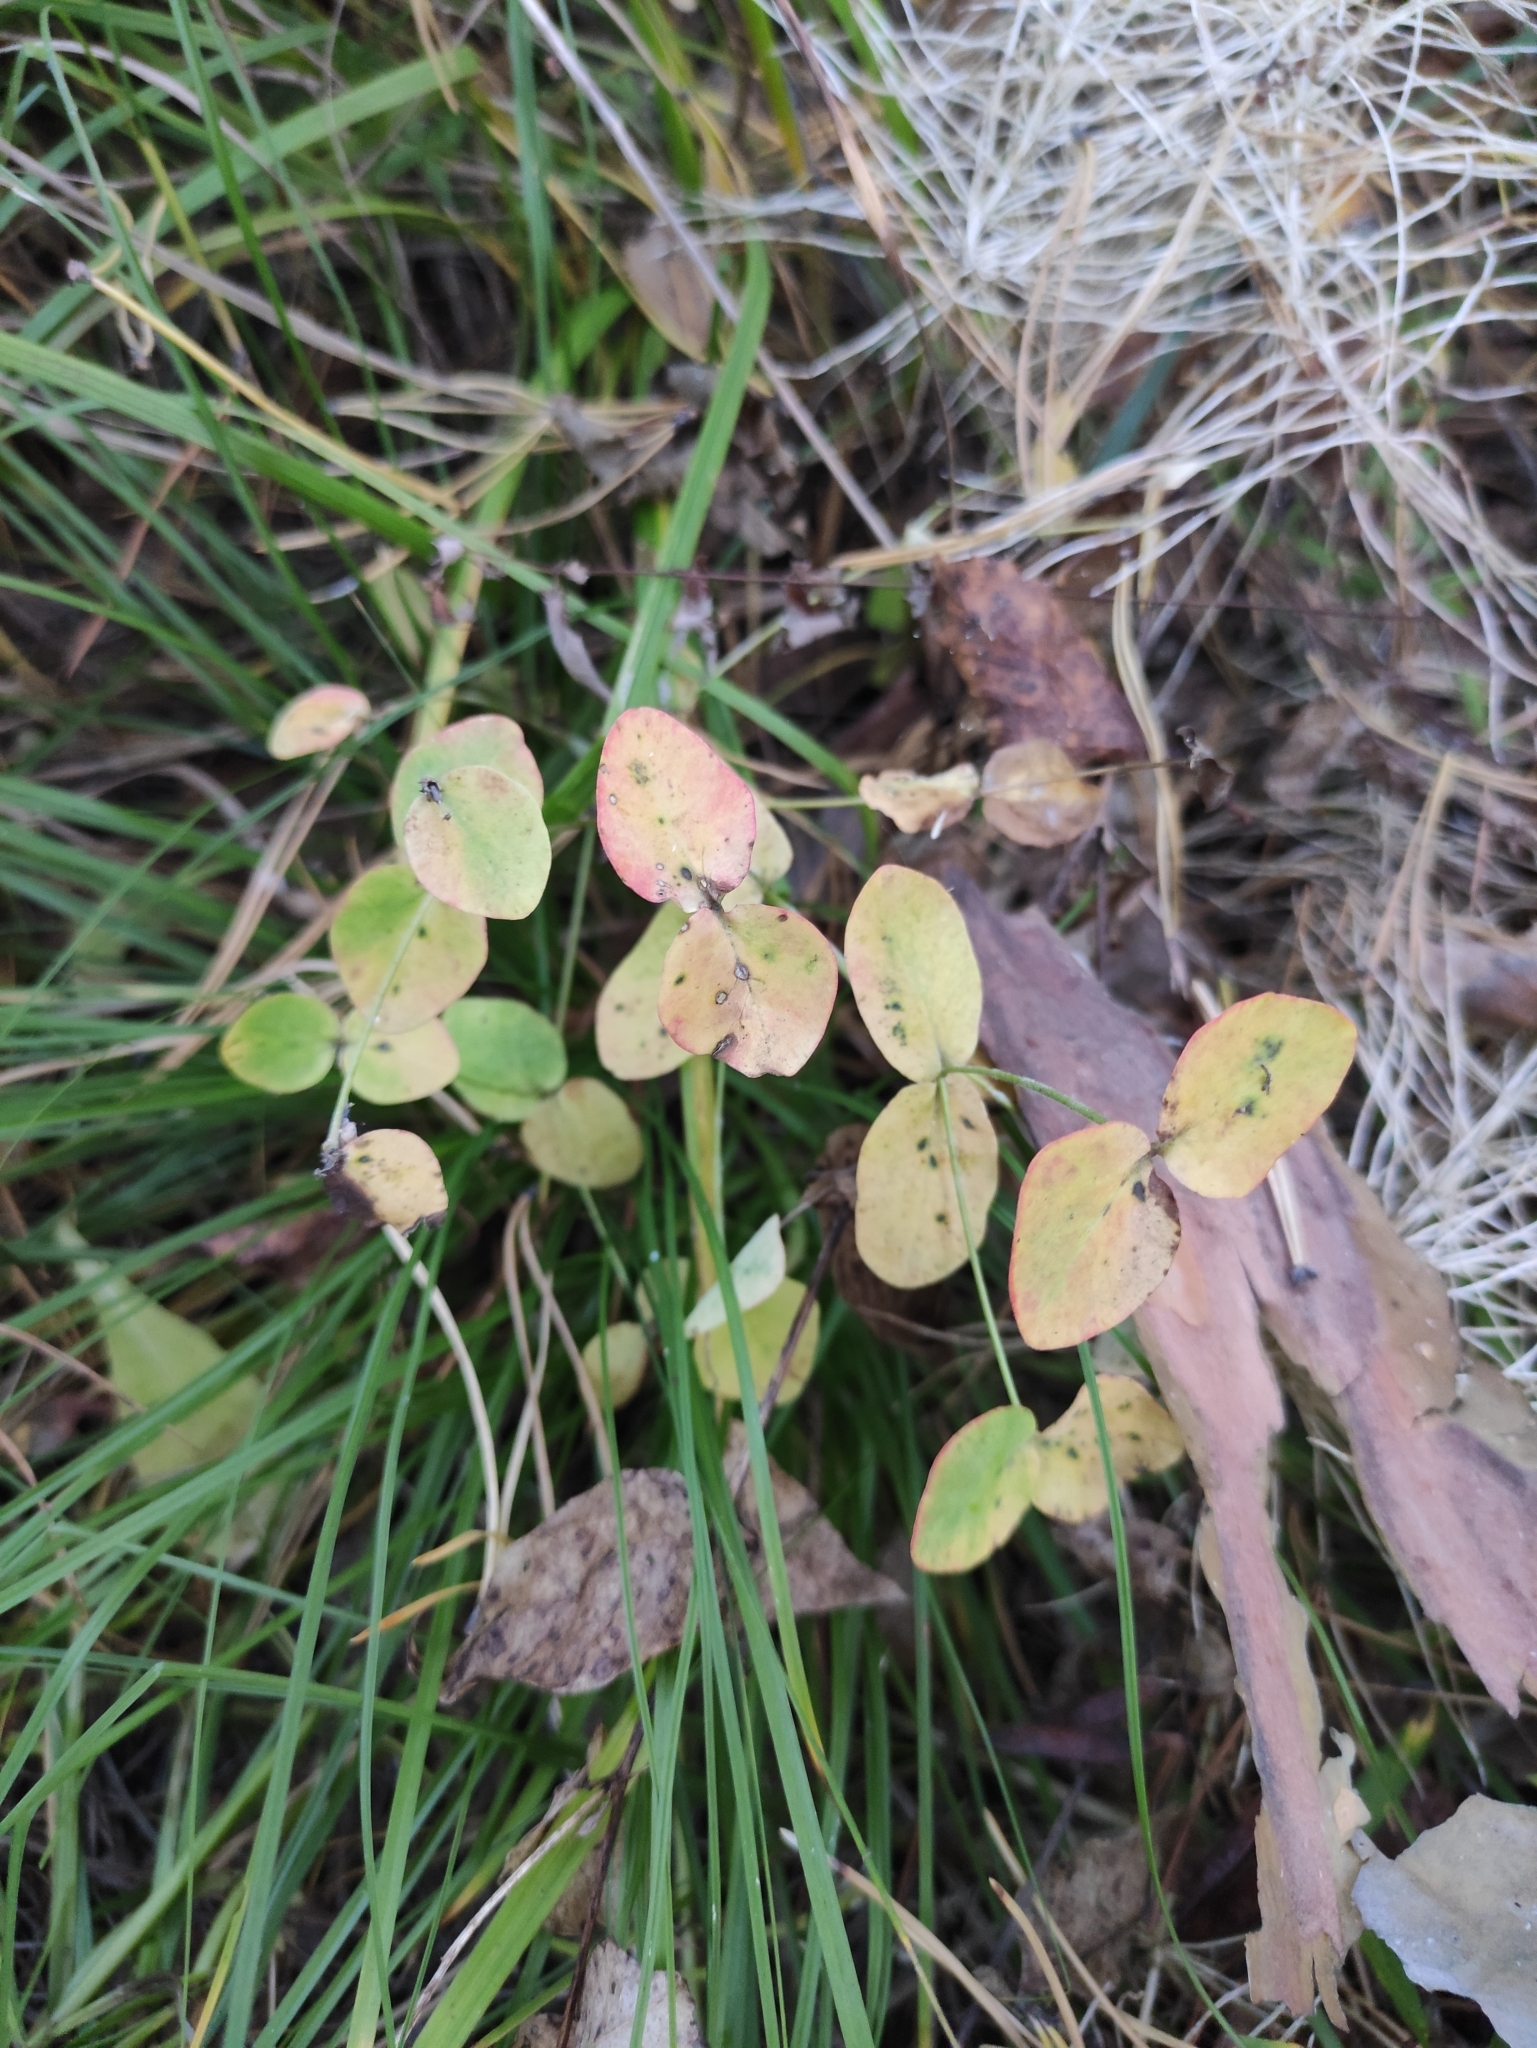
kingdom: Plantae
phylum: Tracheophyta
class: Magnoliopsida
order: Malpighiales
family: Euphorbiaceae
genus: Euphorbia
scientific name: Euphorbia jenisseiensis
